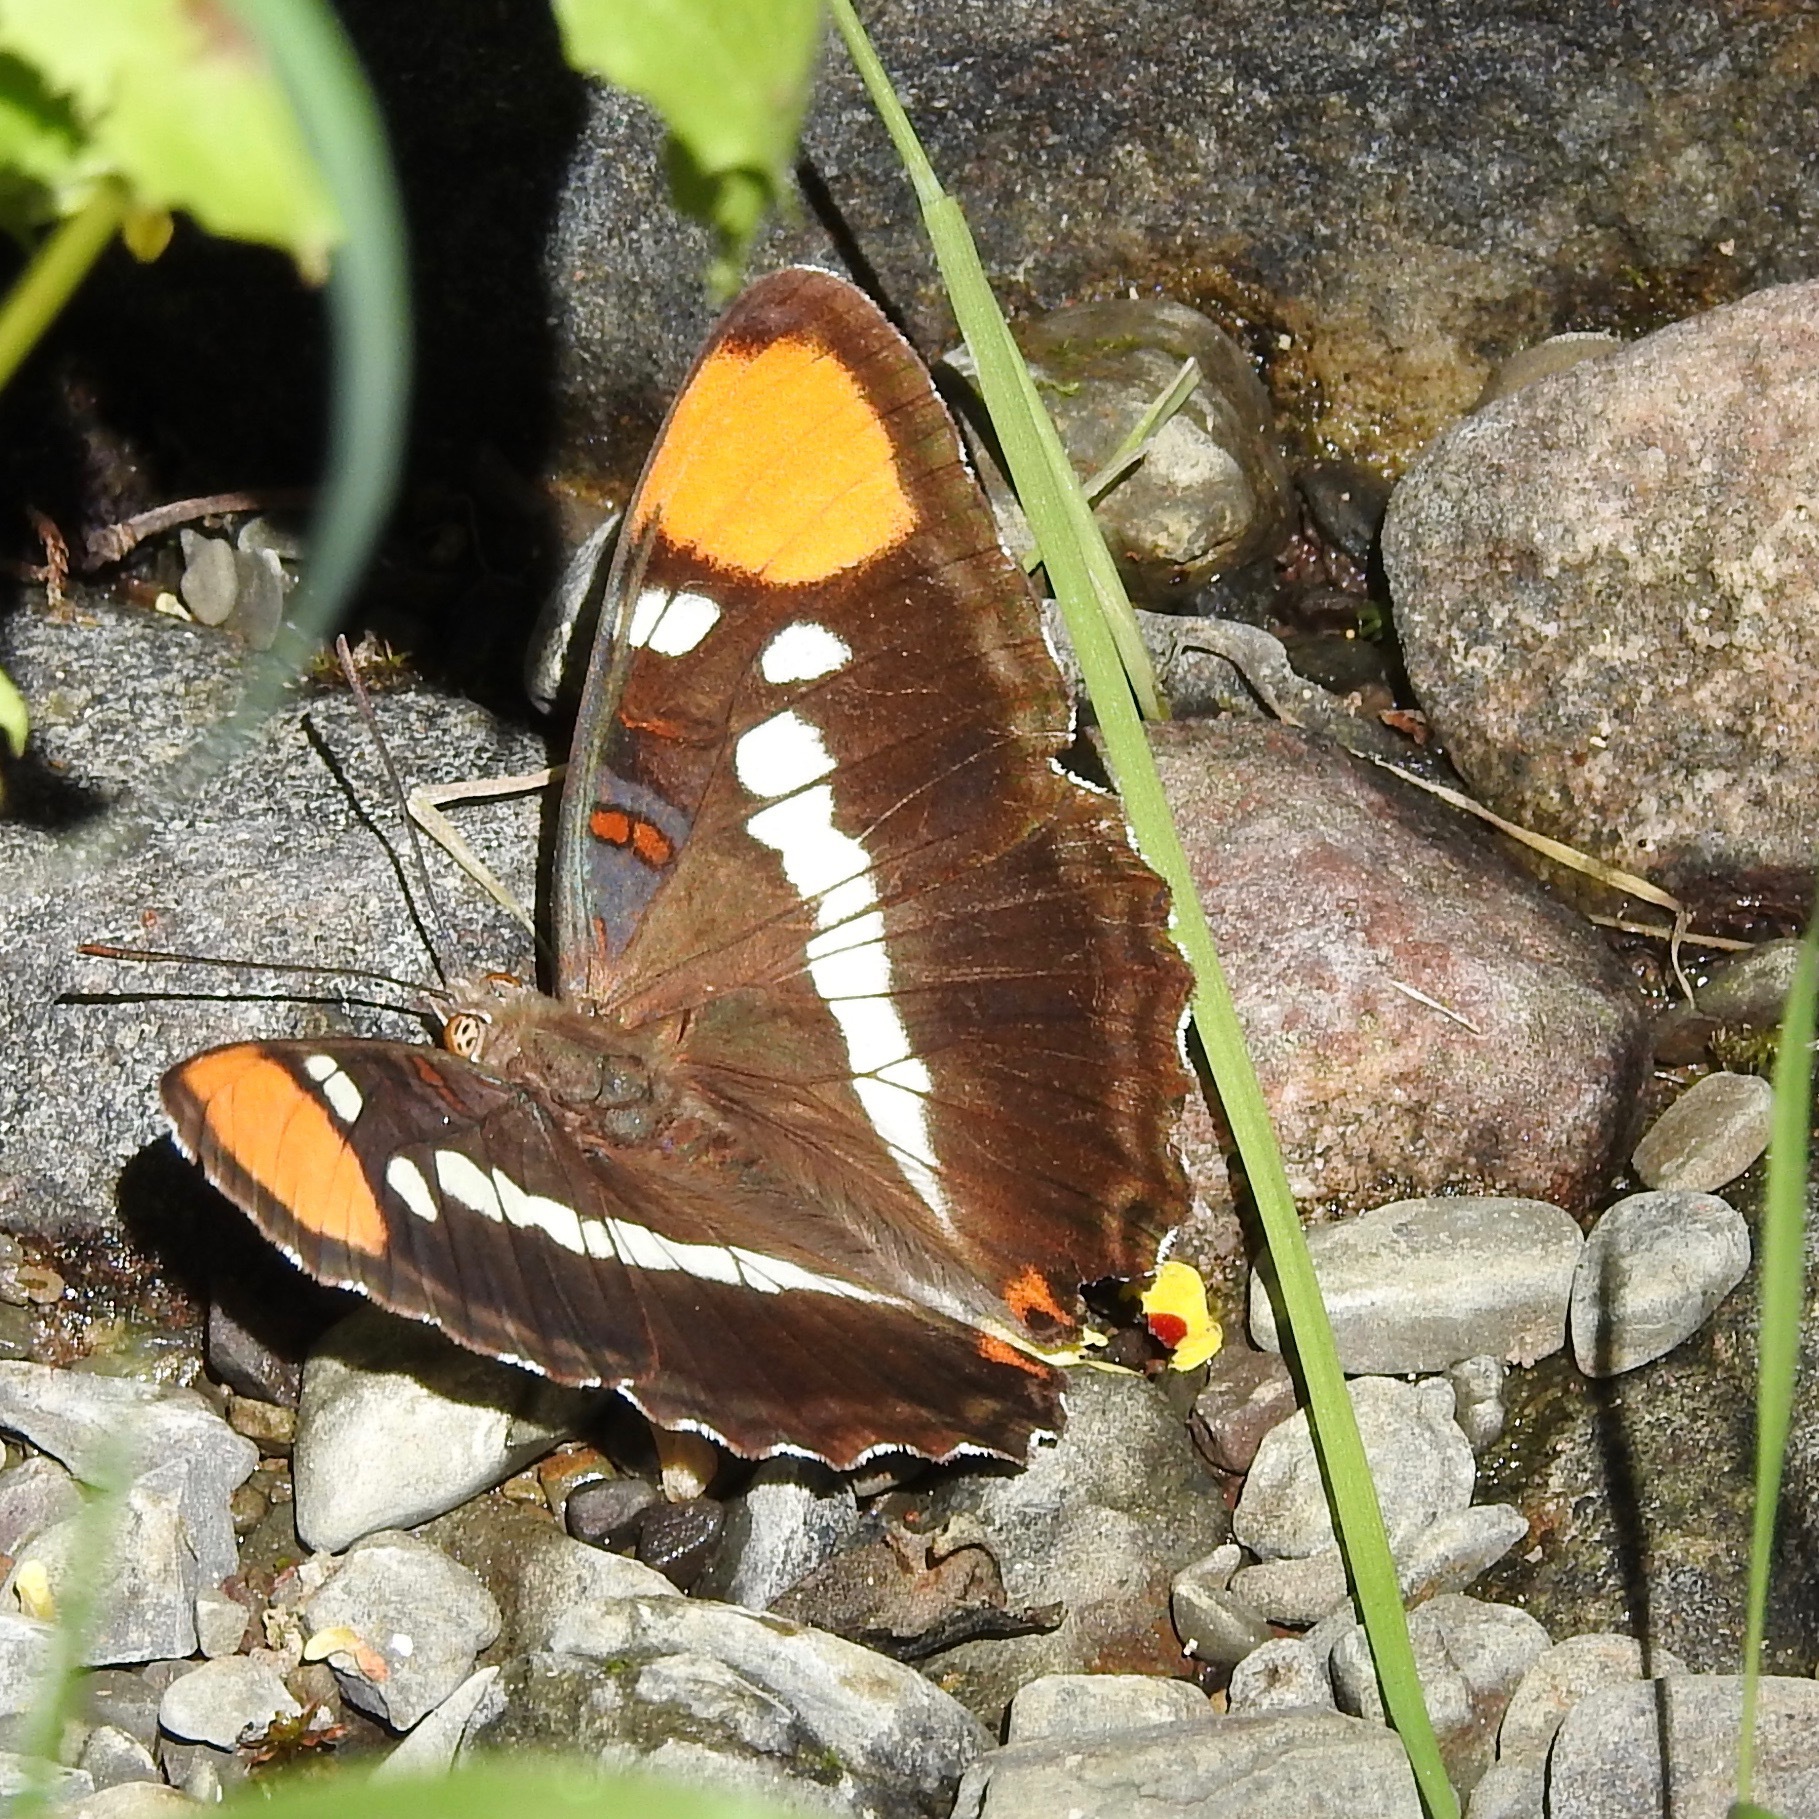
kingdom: Animalia
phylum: Arthropoda
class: Insecta
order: Lepidoptera
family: Nymphalidae
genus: Limenitis
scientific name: Limenitis bredowii
